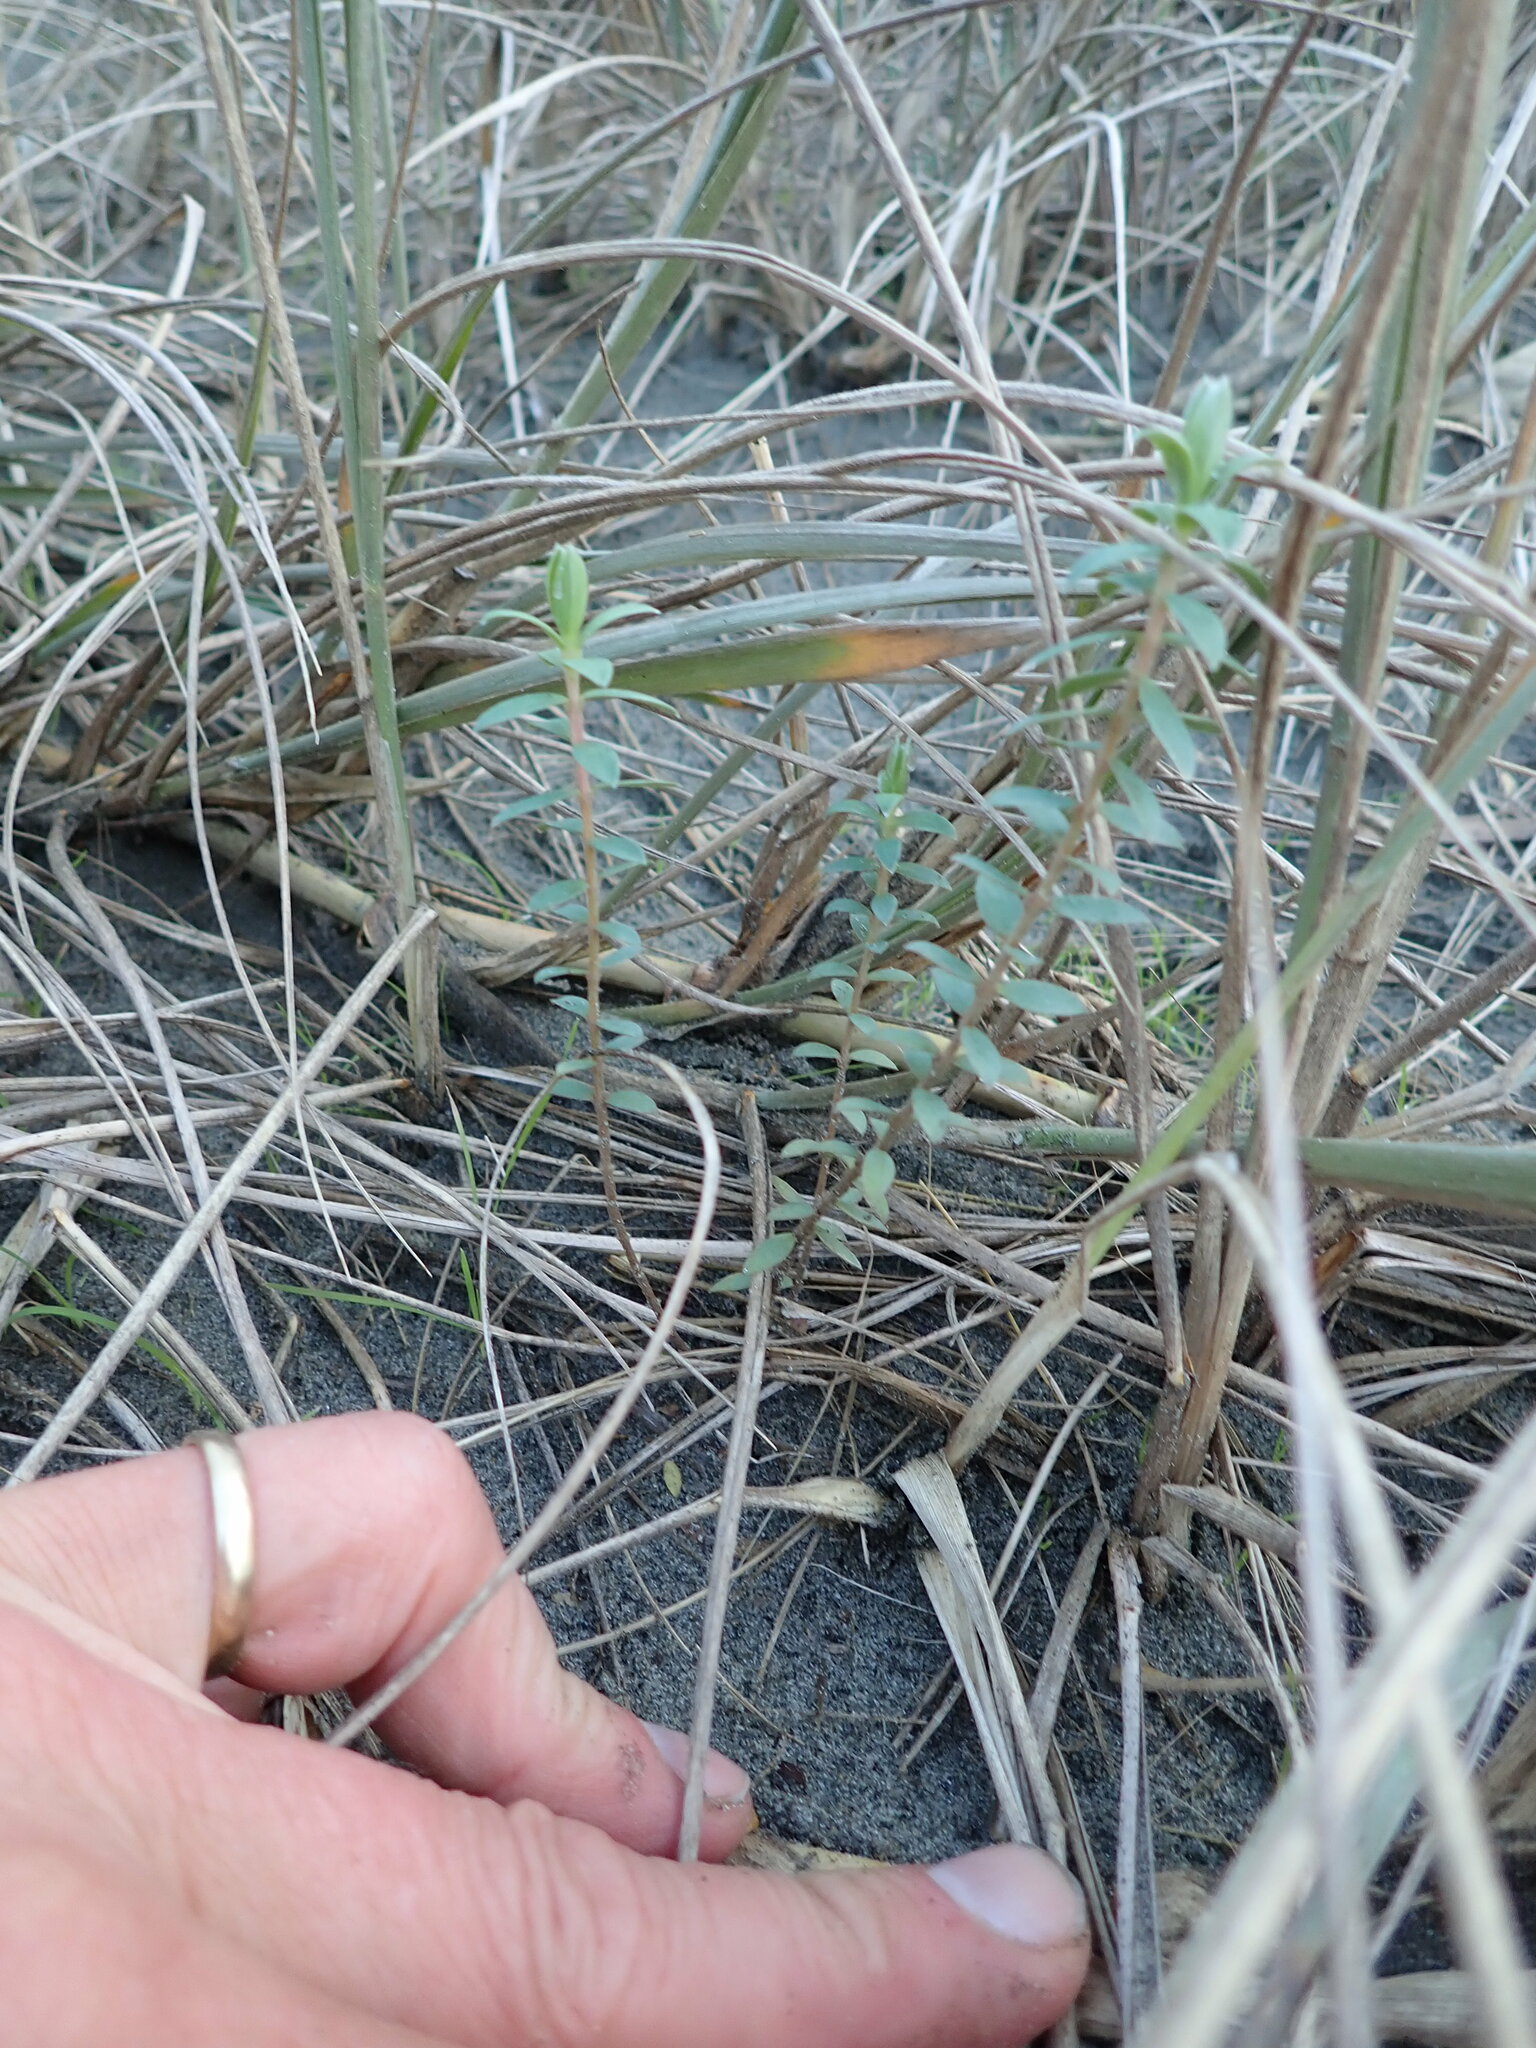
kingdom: Plantae
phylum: Tracheophyta
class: Magnoliopsida
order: Malvales
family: Thymelaeaceae
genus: Pimelea
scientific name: Pimelea villosa
